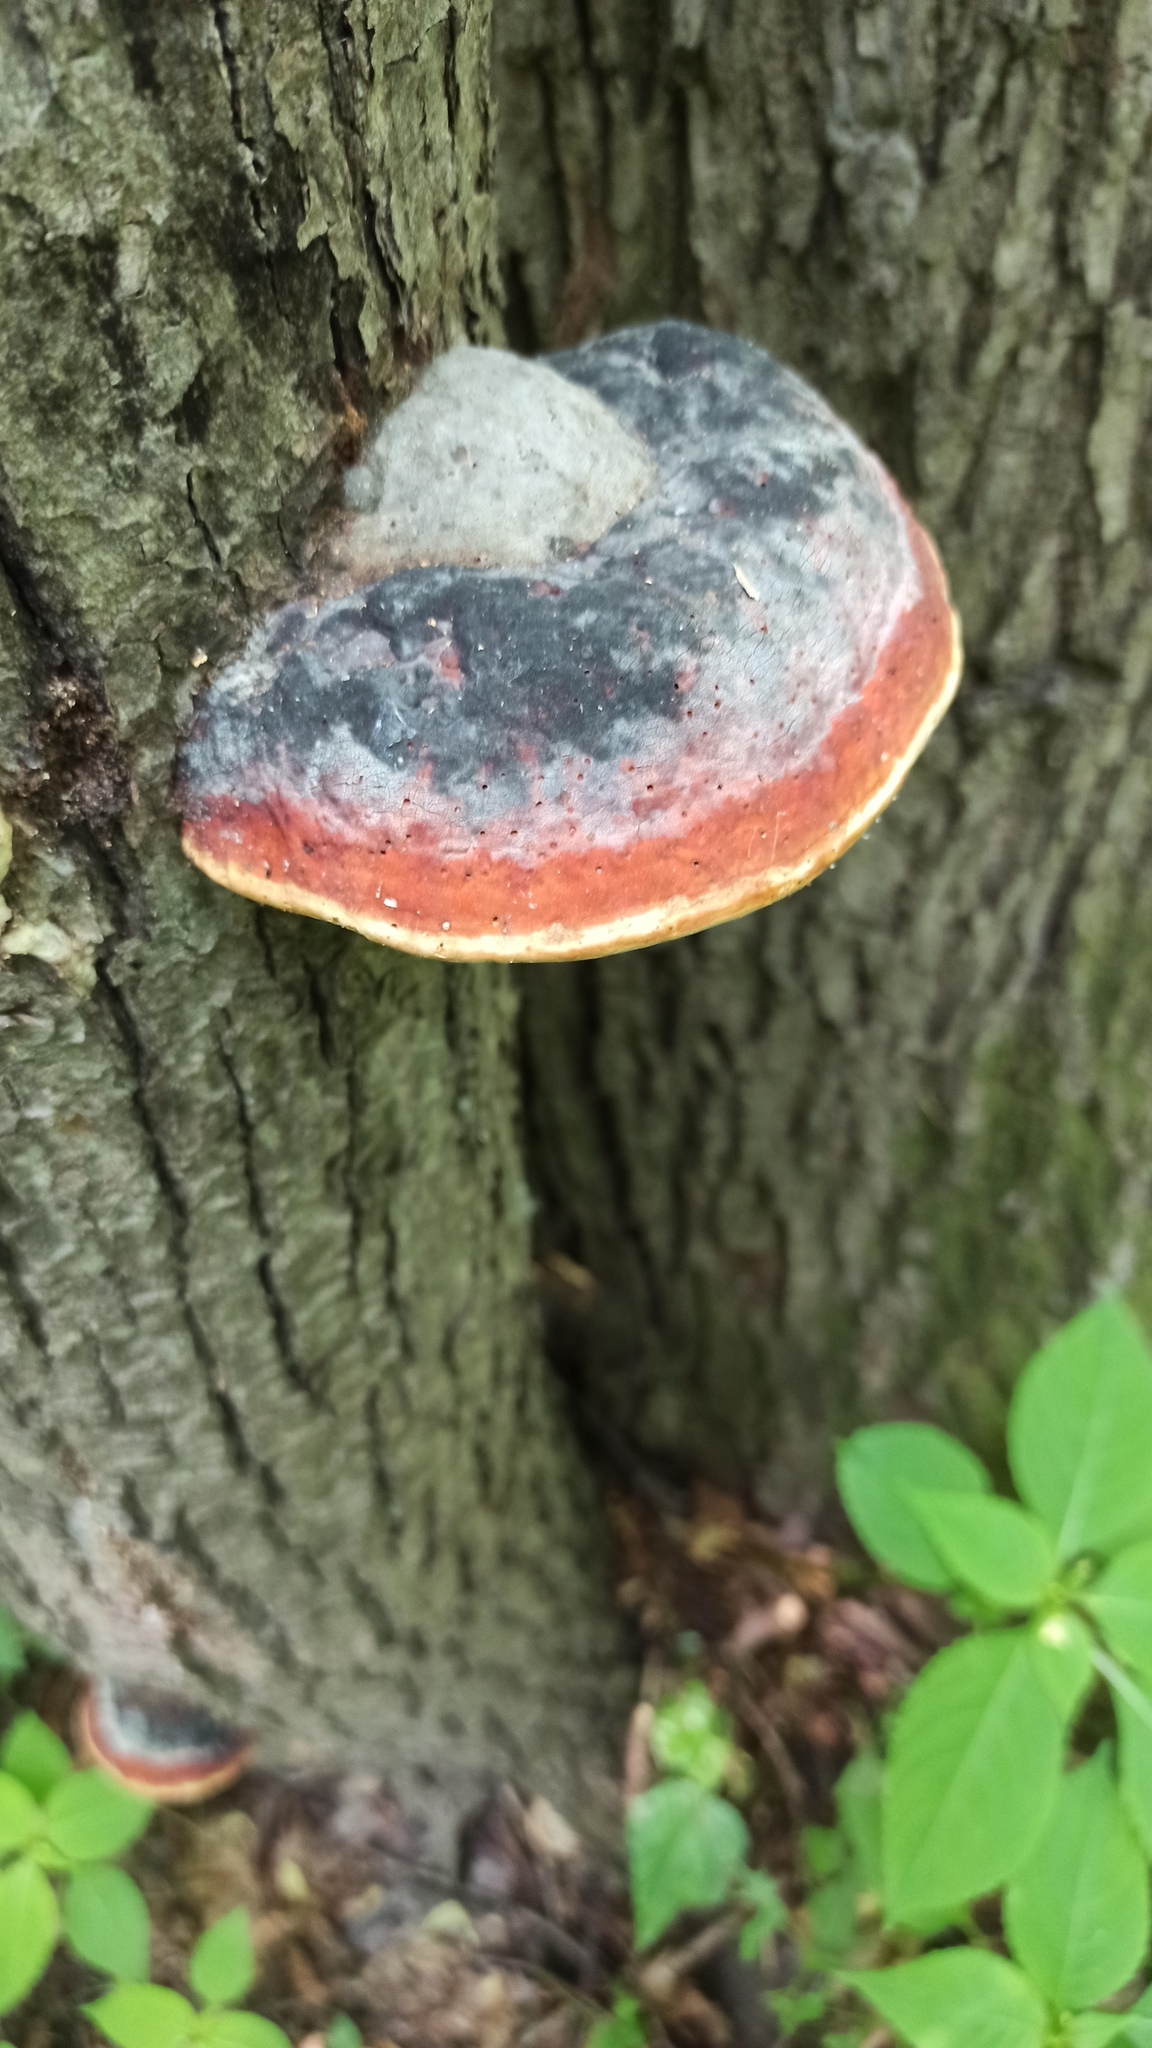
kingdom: Fungi
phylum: Basidiomycota
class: Agaricomycetes
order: Polyporales
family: Fomitopsidaceae
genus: Fomitopsis
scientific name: Fomitopsis pinicola
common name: Red-belted bracket
